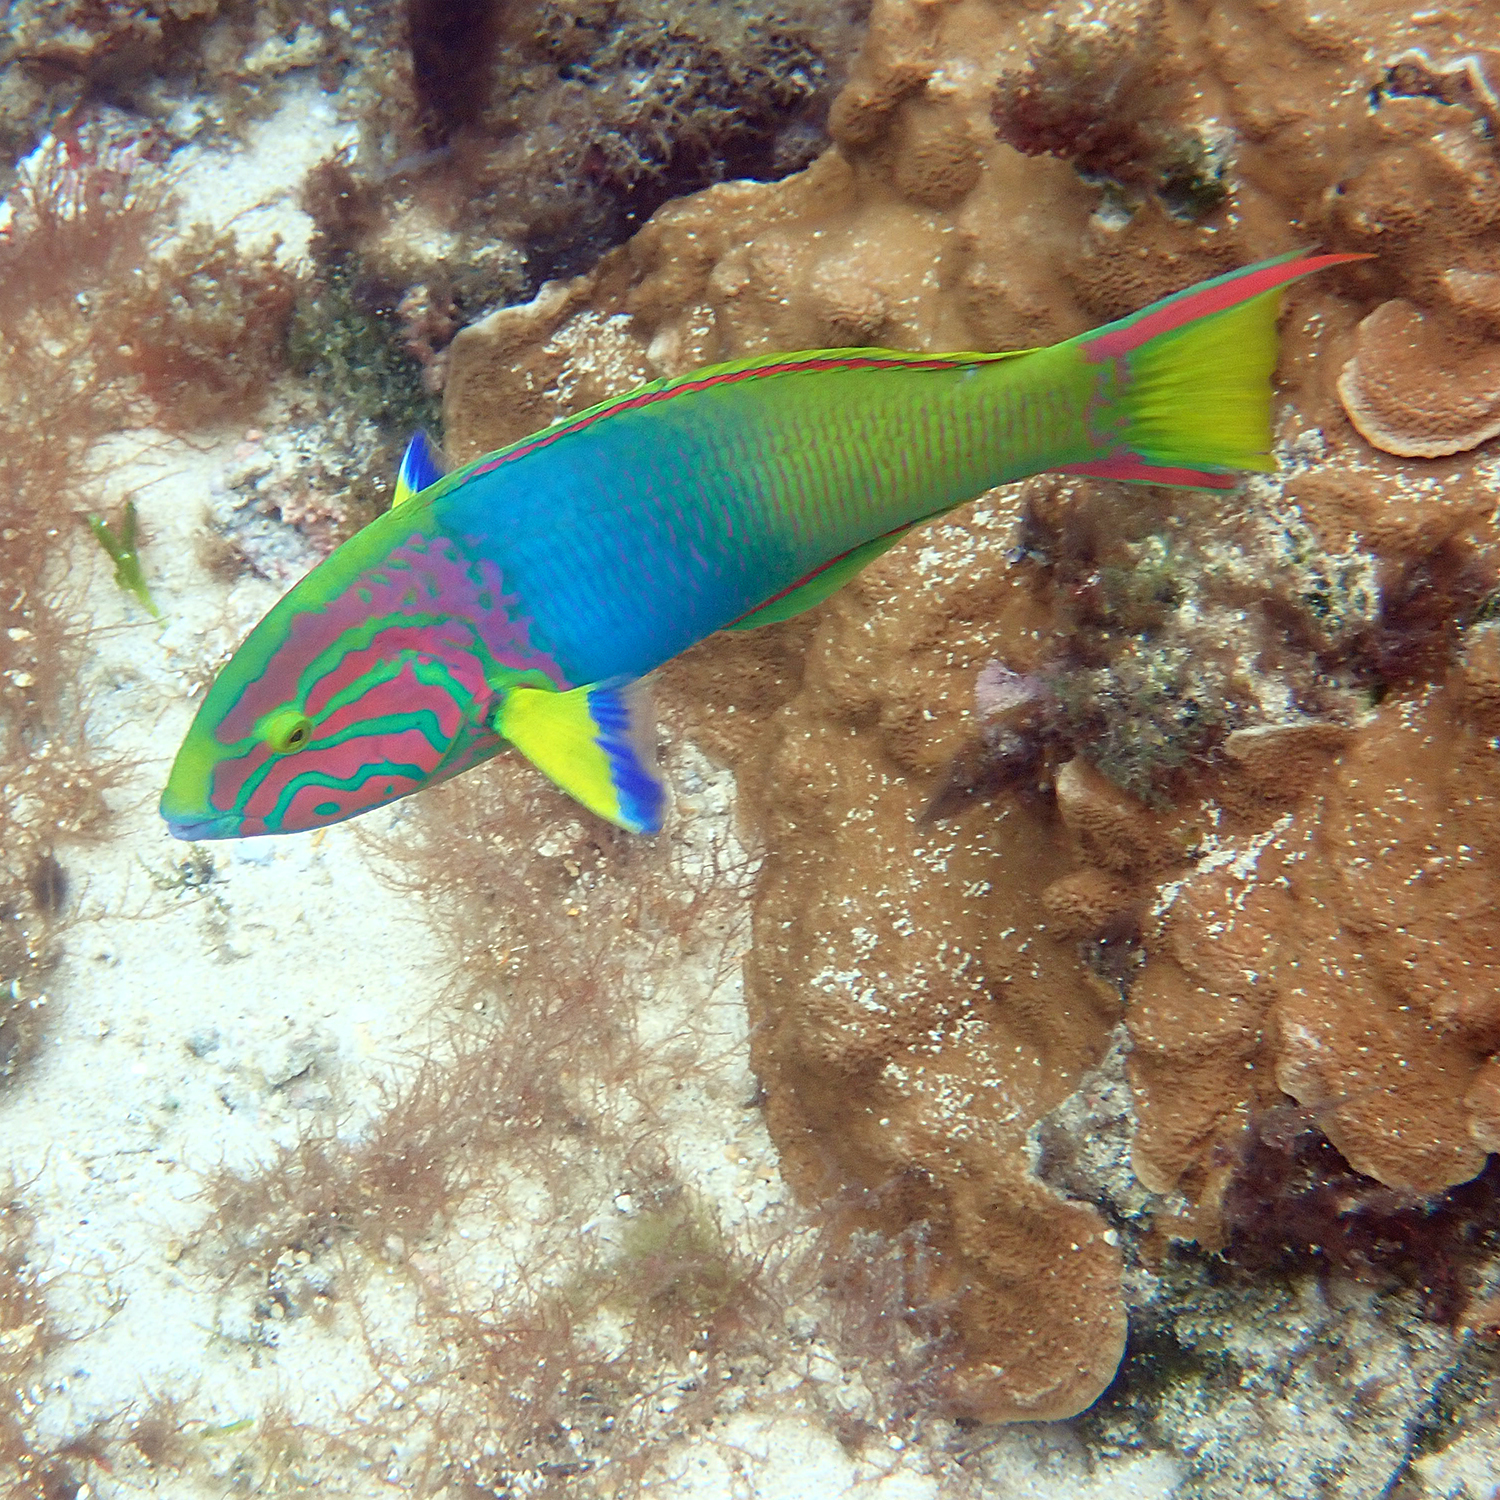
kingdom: Animalia
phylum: Chordata
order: Perciformes
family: Labridae
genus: Thalassoma
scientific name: Thalassoma lutescens
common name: Green moon wrasse
